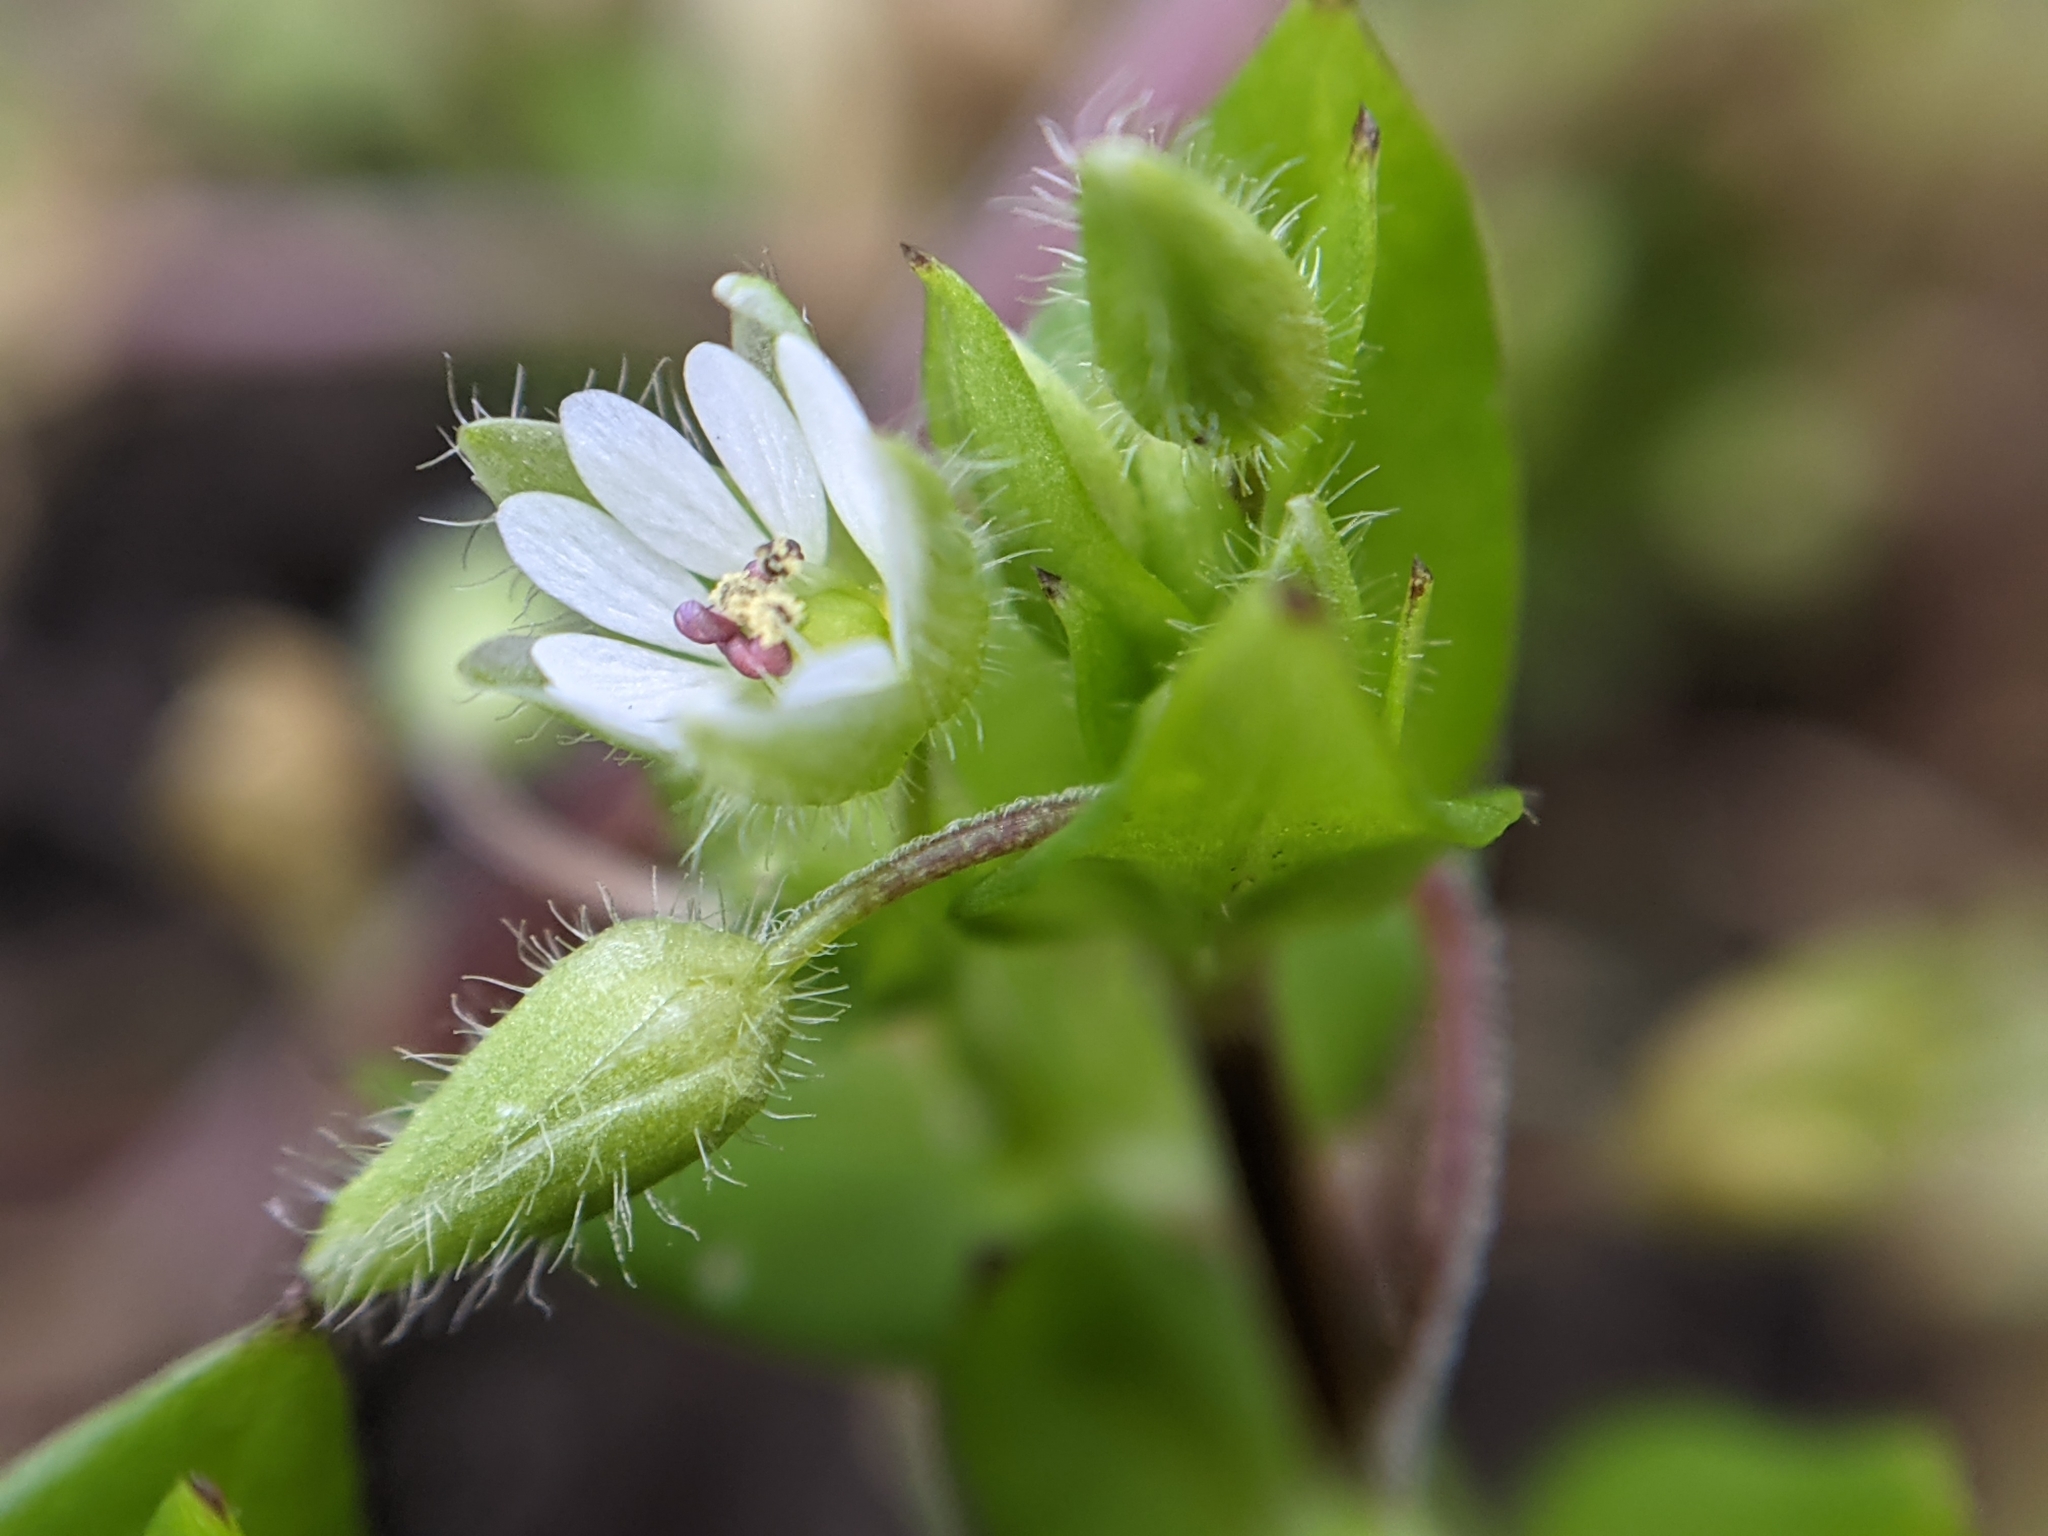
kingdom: Plantae
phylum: Tracheophyta
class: Magnoliopsida
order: Caryophyllales
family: Caryophyllaceae
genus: Stellaria
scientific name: Stellaria media
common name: Common chickweed
